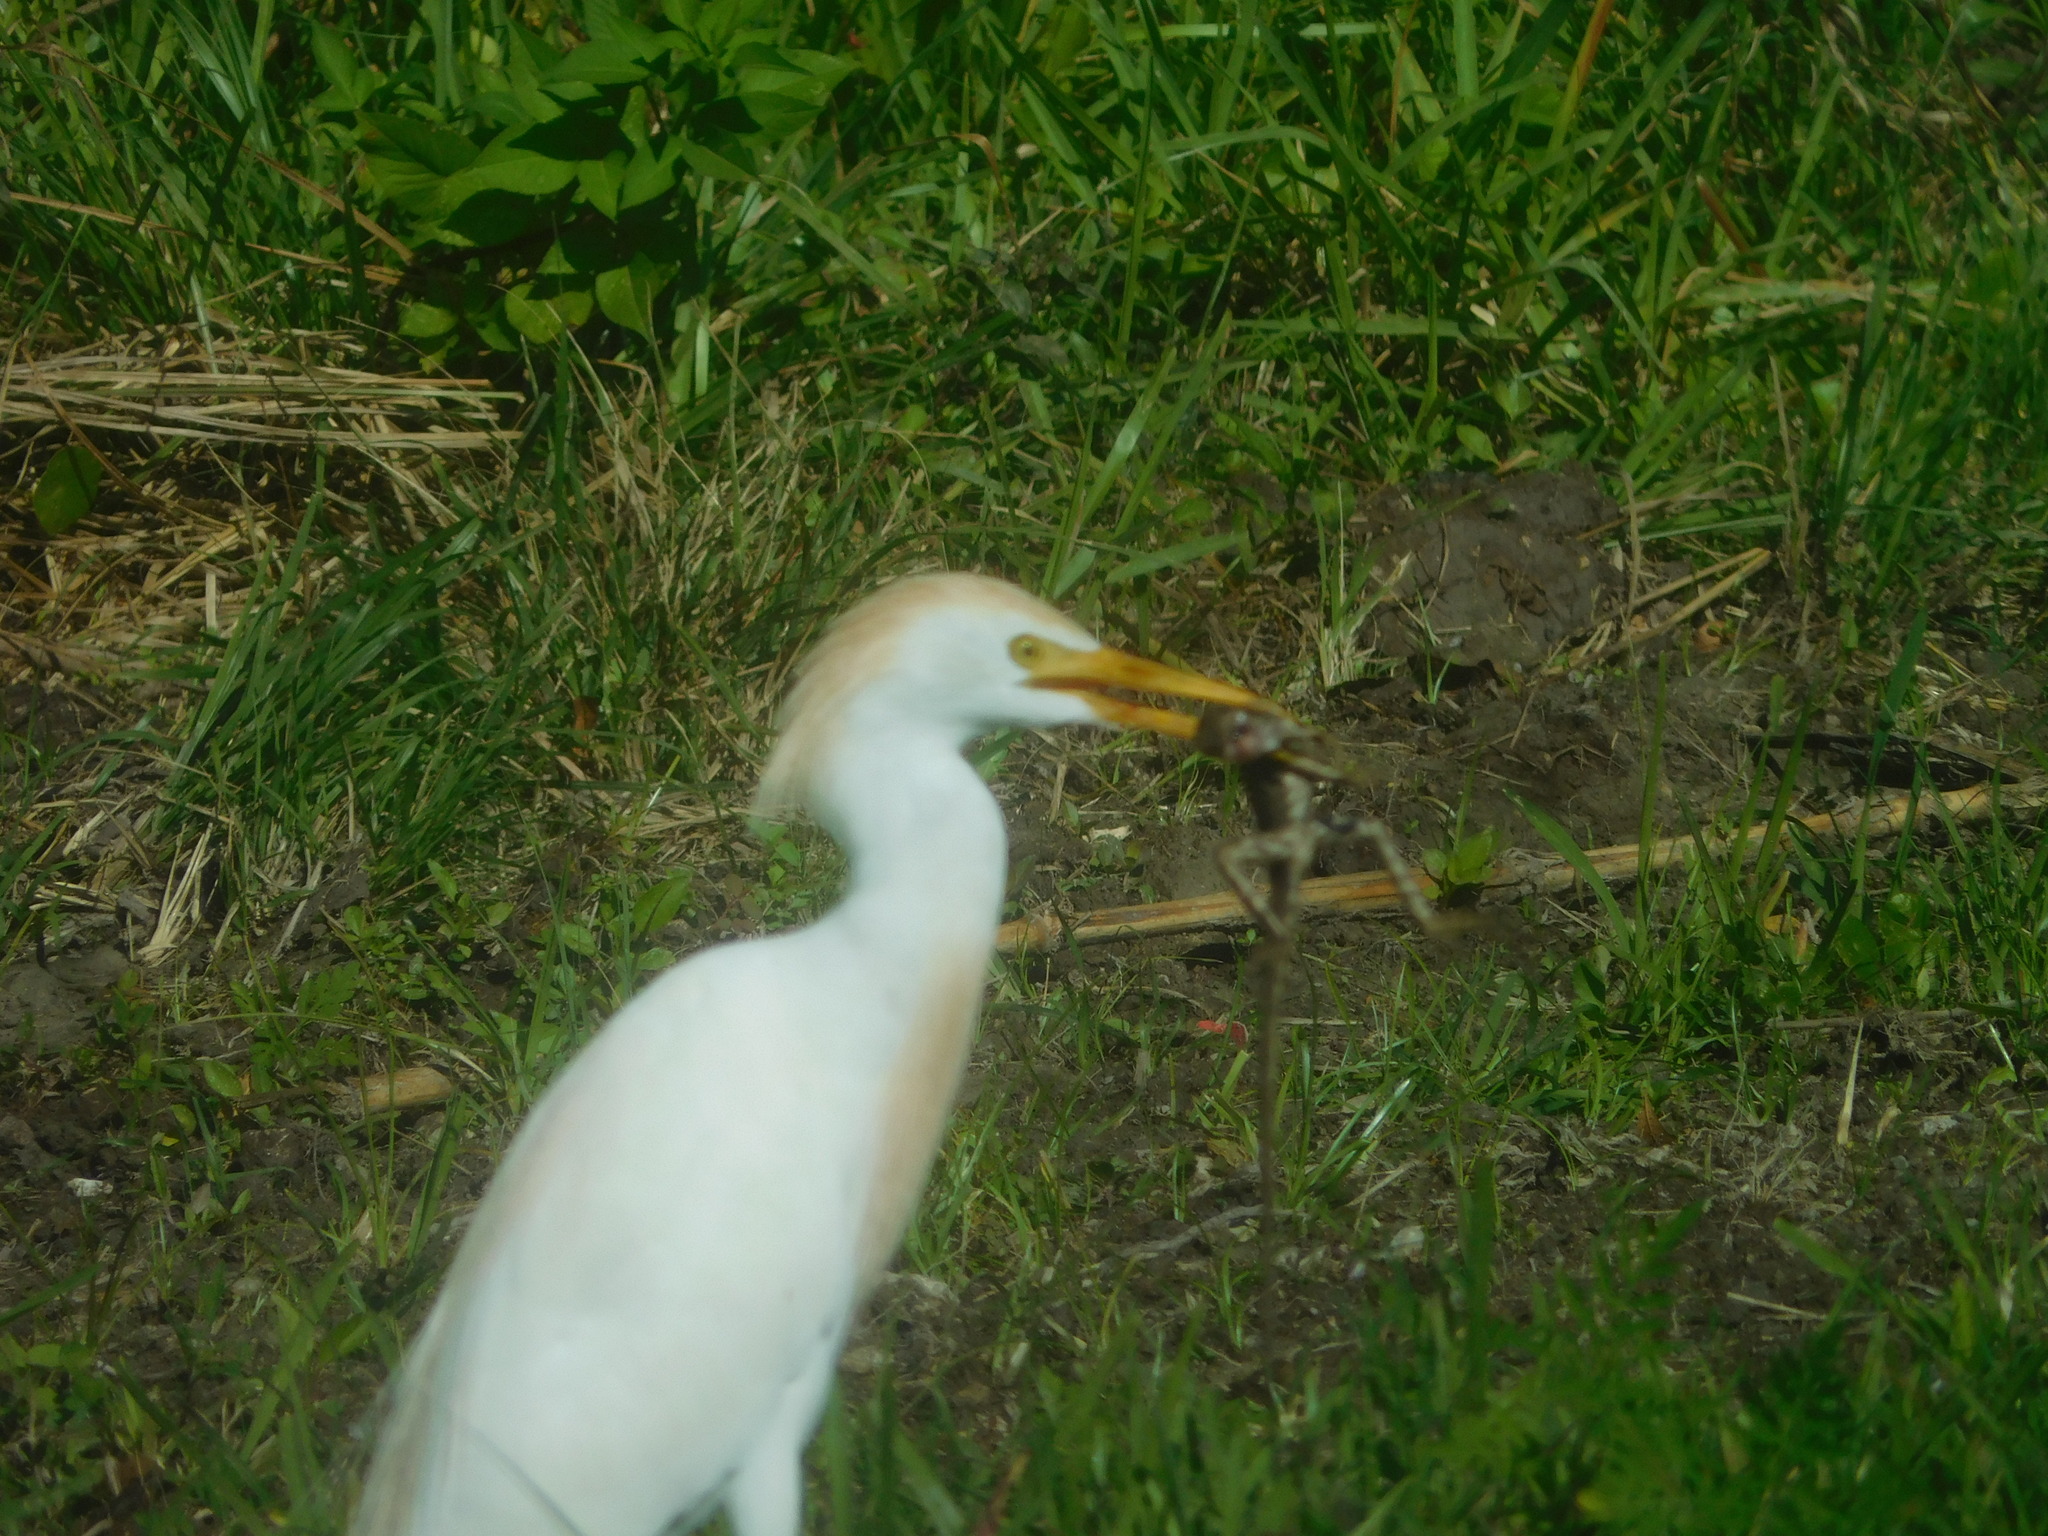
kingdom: Animalia
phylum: Chordata
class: Aves
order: Pelecaniformes
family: Ardeidae
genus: Bubulcus
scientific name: Bubulcus ibis
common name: Cattle egret
